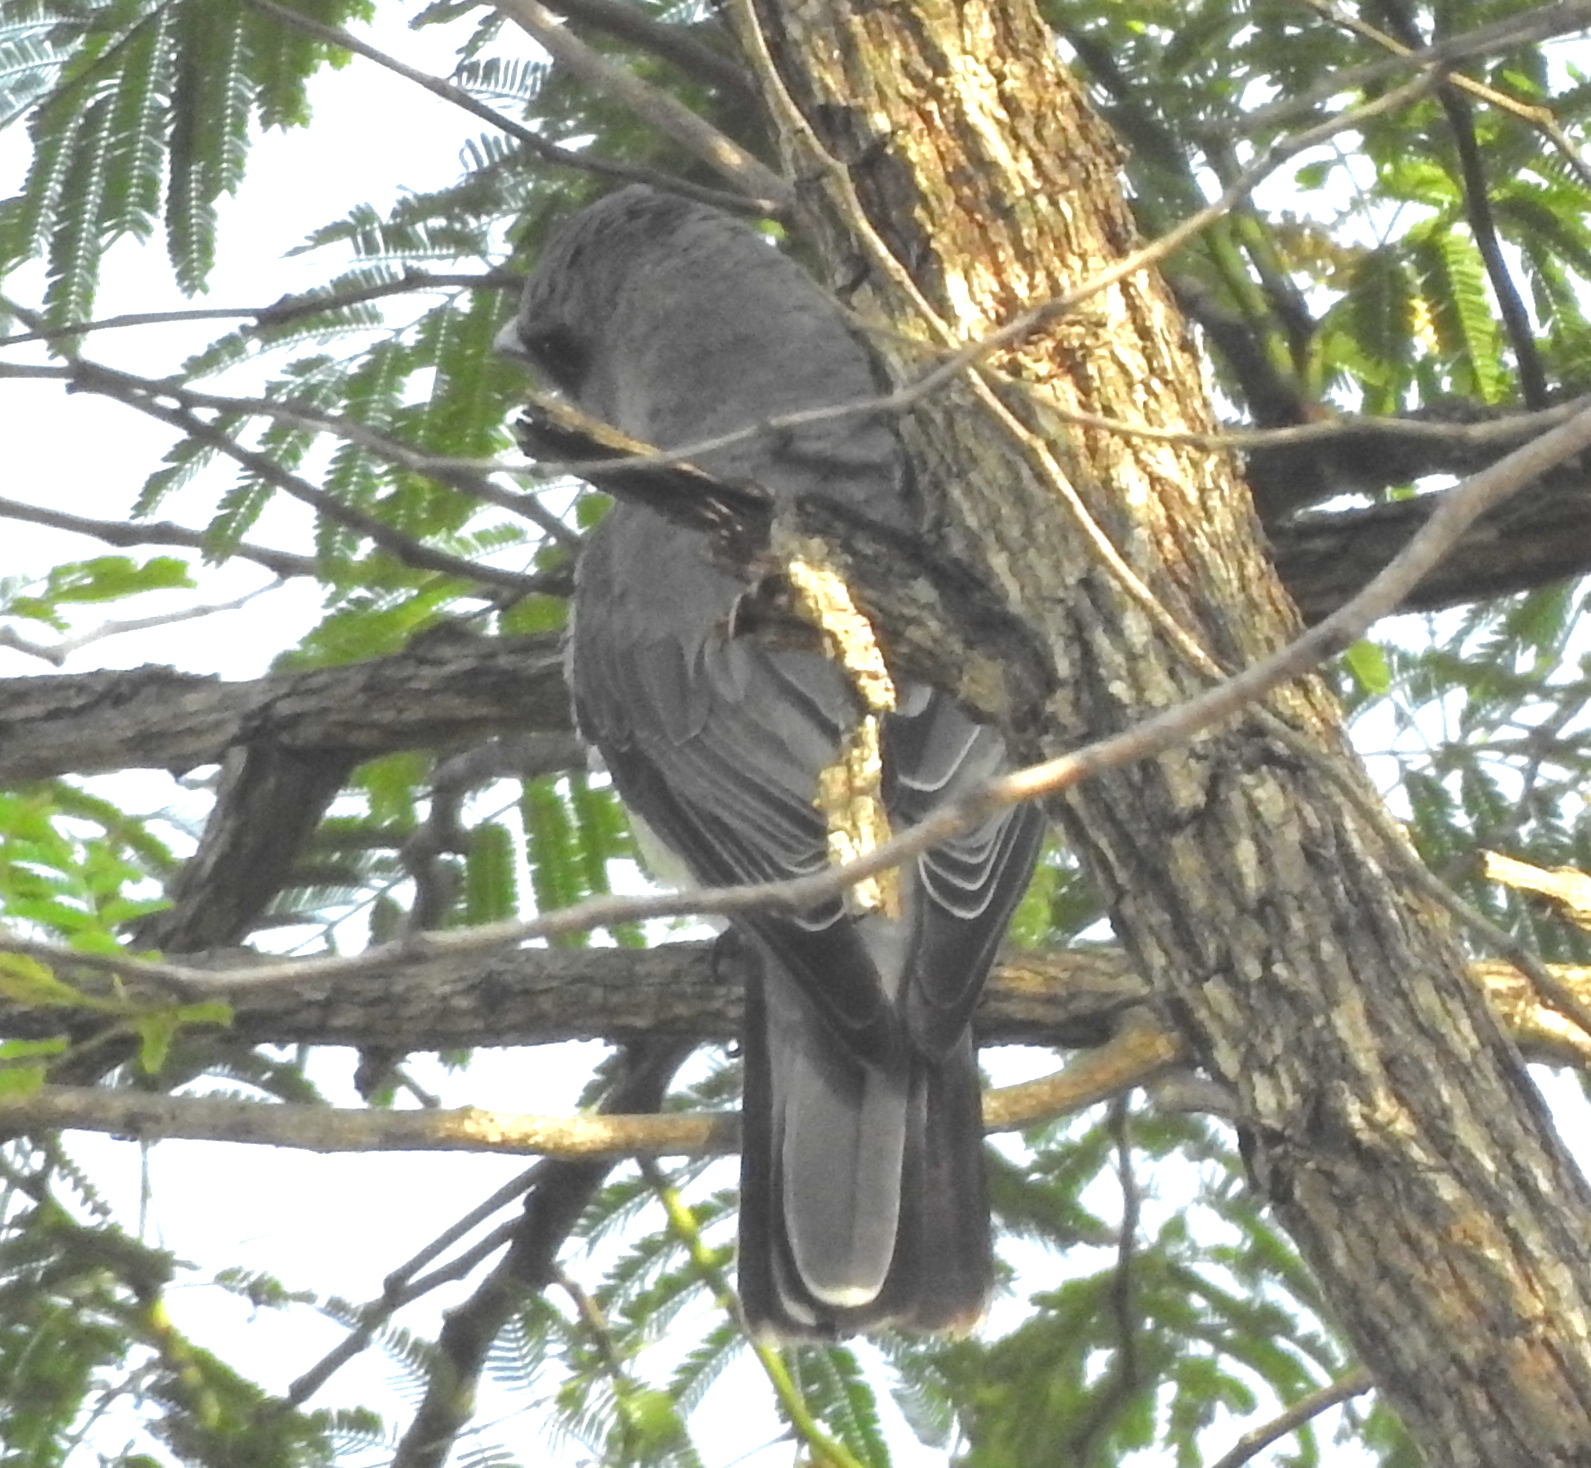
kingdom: Animalia
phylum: Chordata
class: Aves
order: Passeriformes
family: Campephagidae
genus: Coracina
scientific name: Coracina macei
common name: Large cuckooshrike
